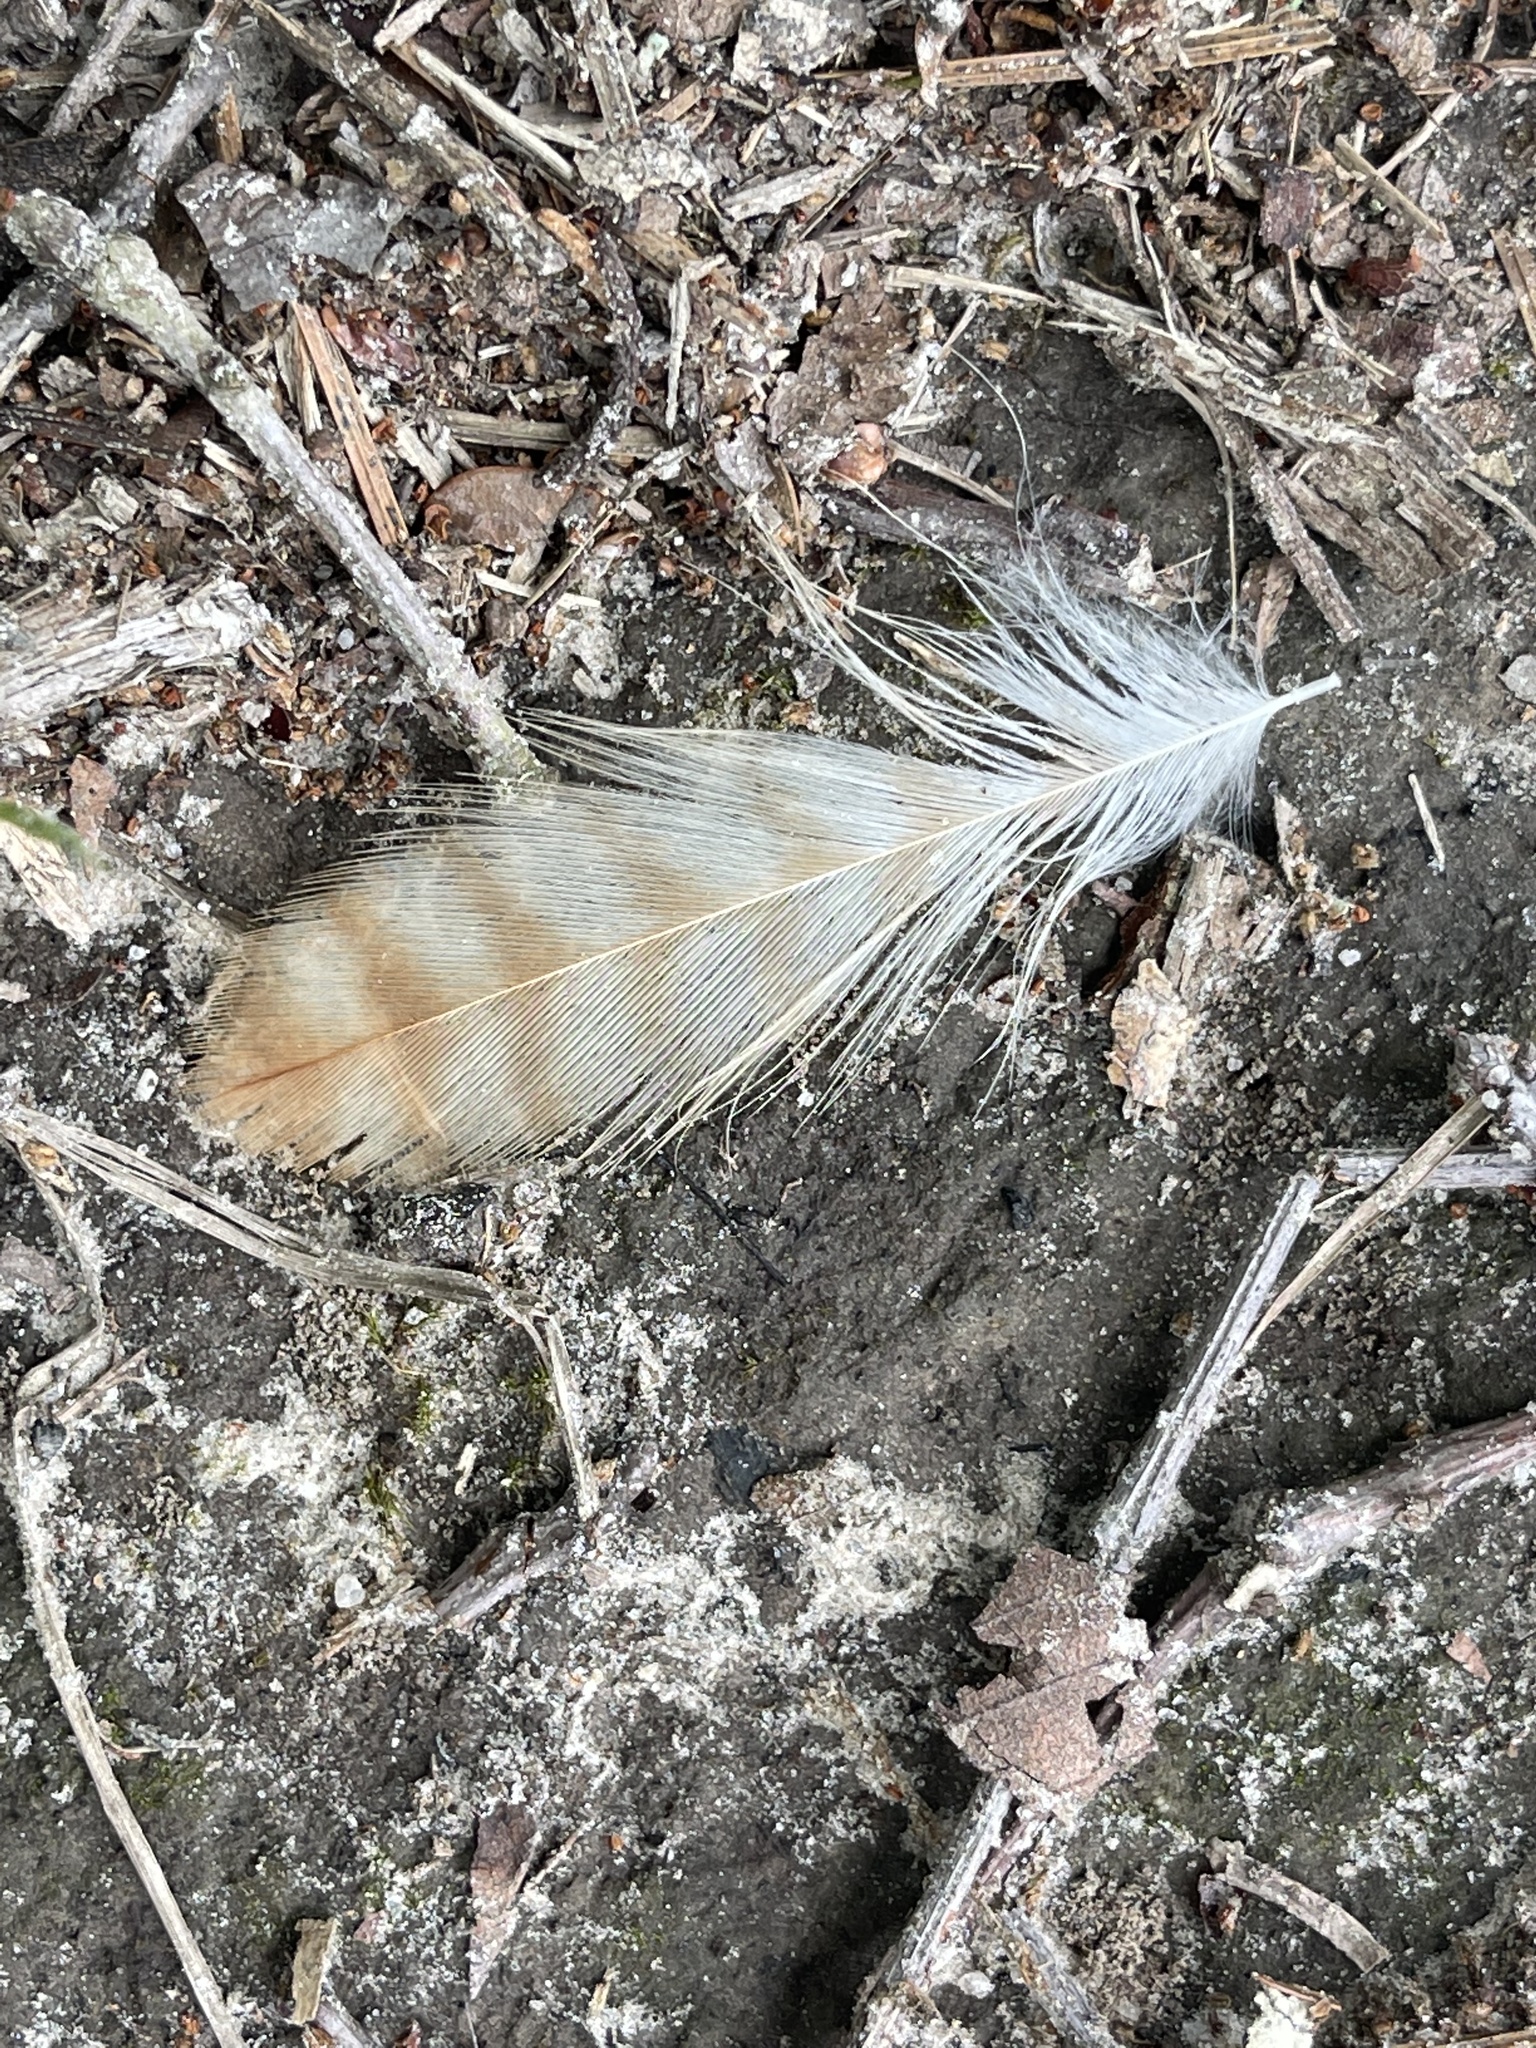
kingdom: Animalia
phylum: Chordata
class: Aves
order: Accipitriformes
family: Accipitridae
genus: Buteo
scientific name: Buteo lineatus
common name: Red-shouldered hawk
